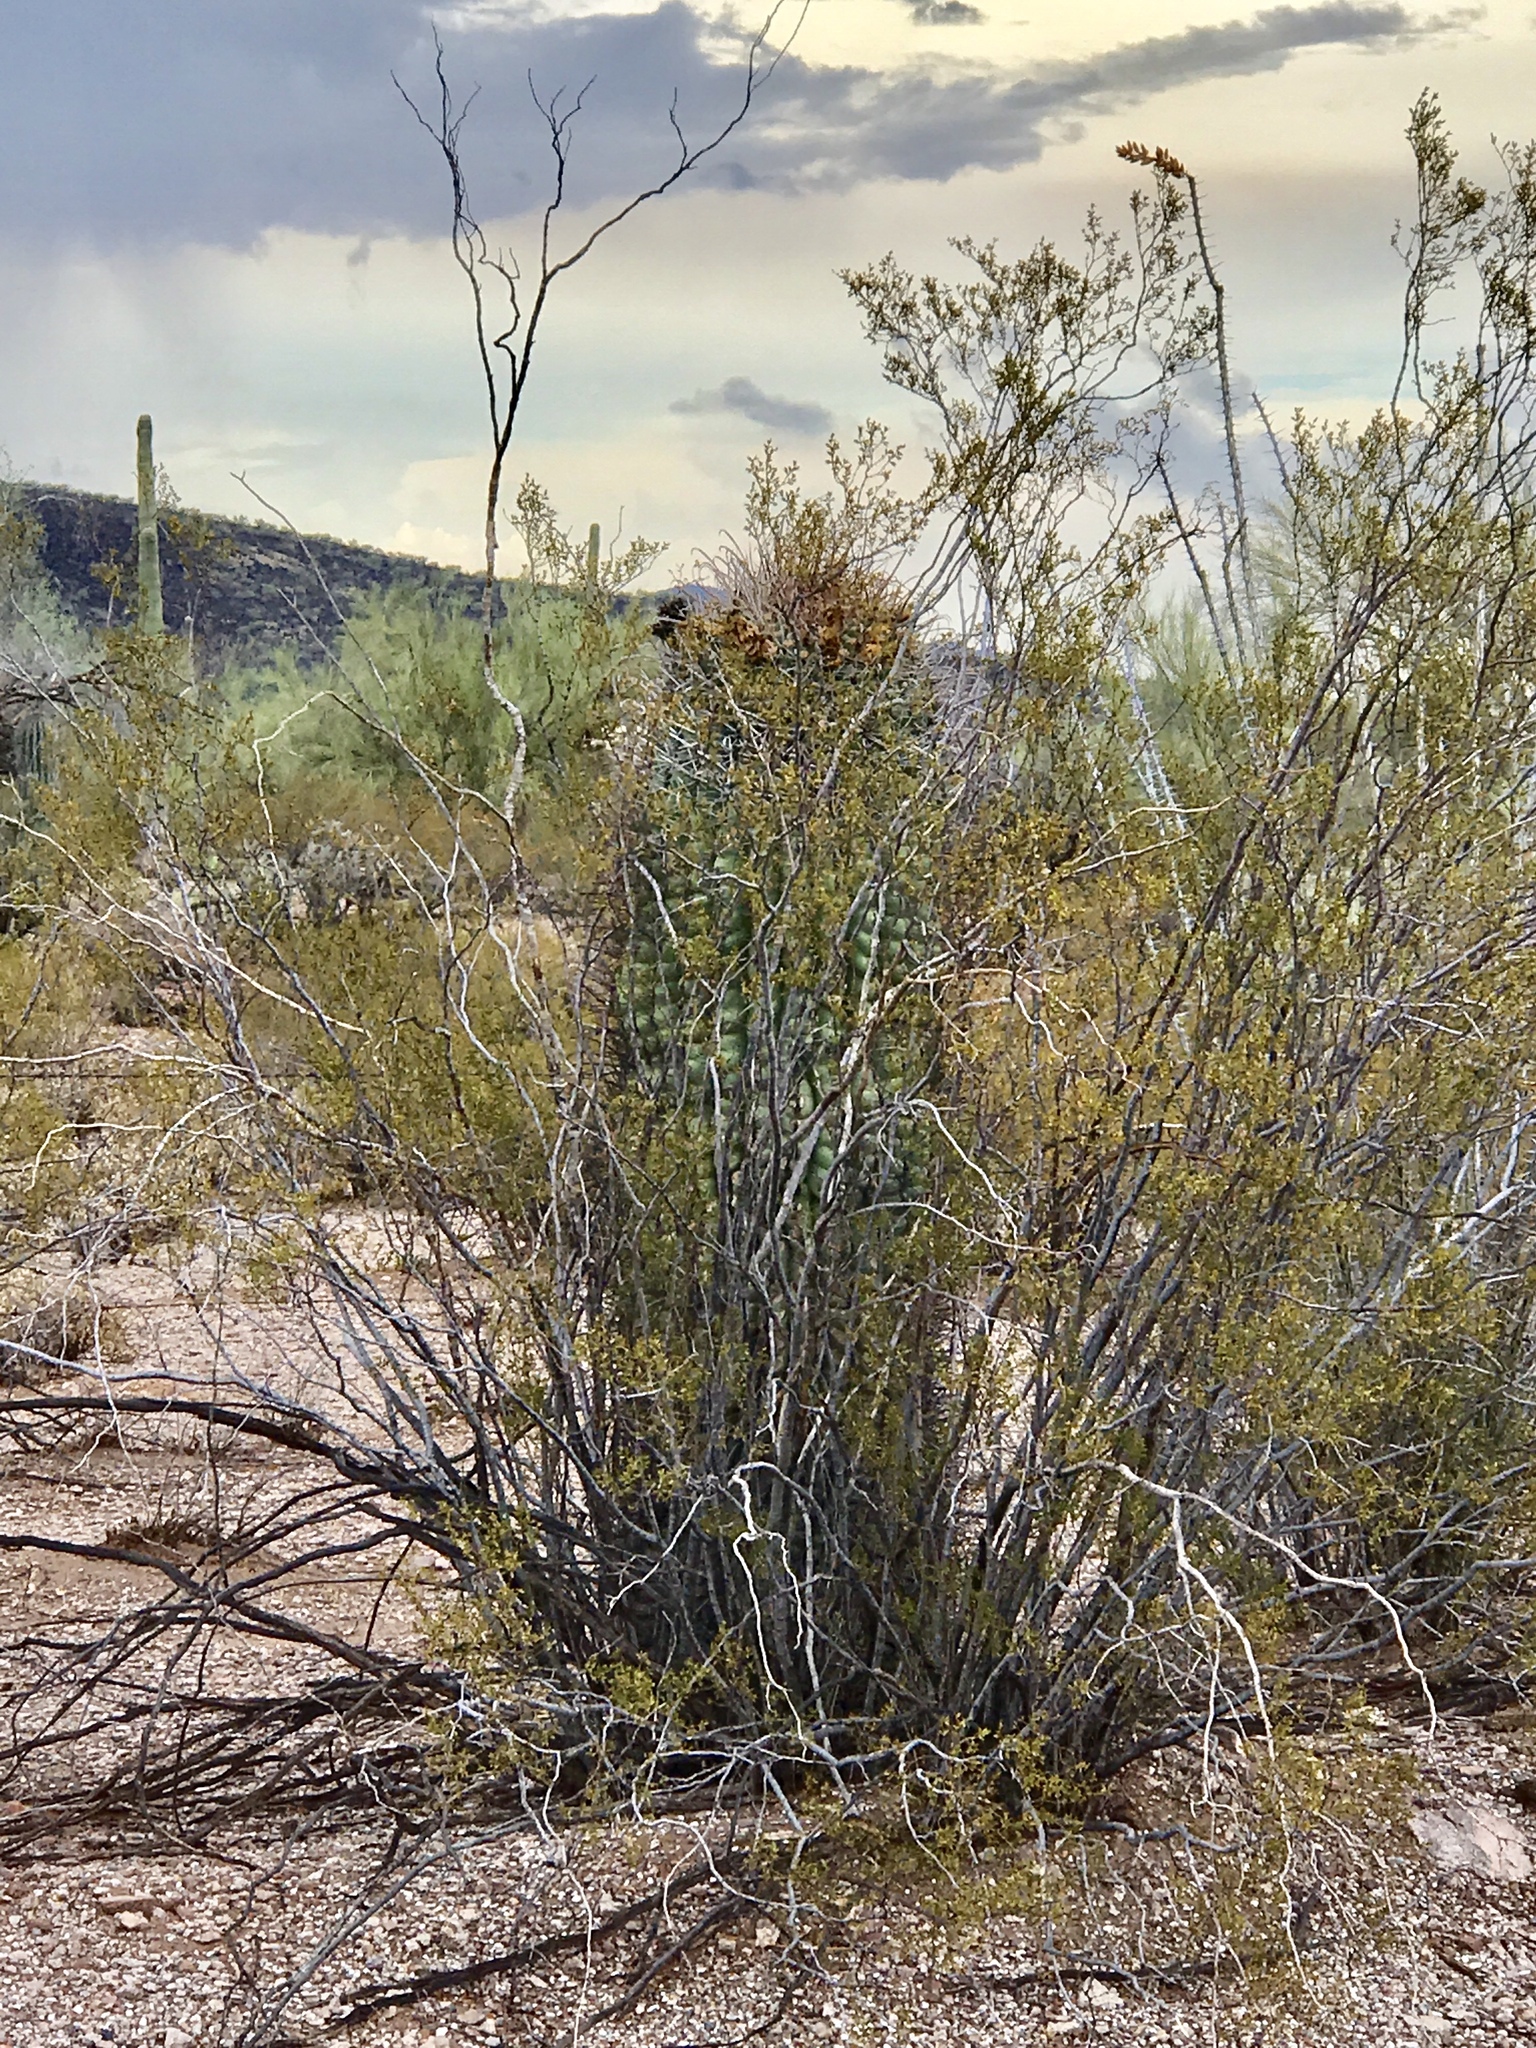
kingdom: Plantae
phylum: Tracheophyta
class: Magnoliopsida
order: Caryophyllales
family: Cactaceae
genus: Ferocactus
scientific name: Ferocactus wislizeni
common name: Candy barrel cactus
